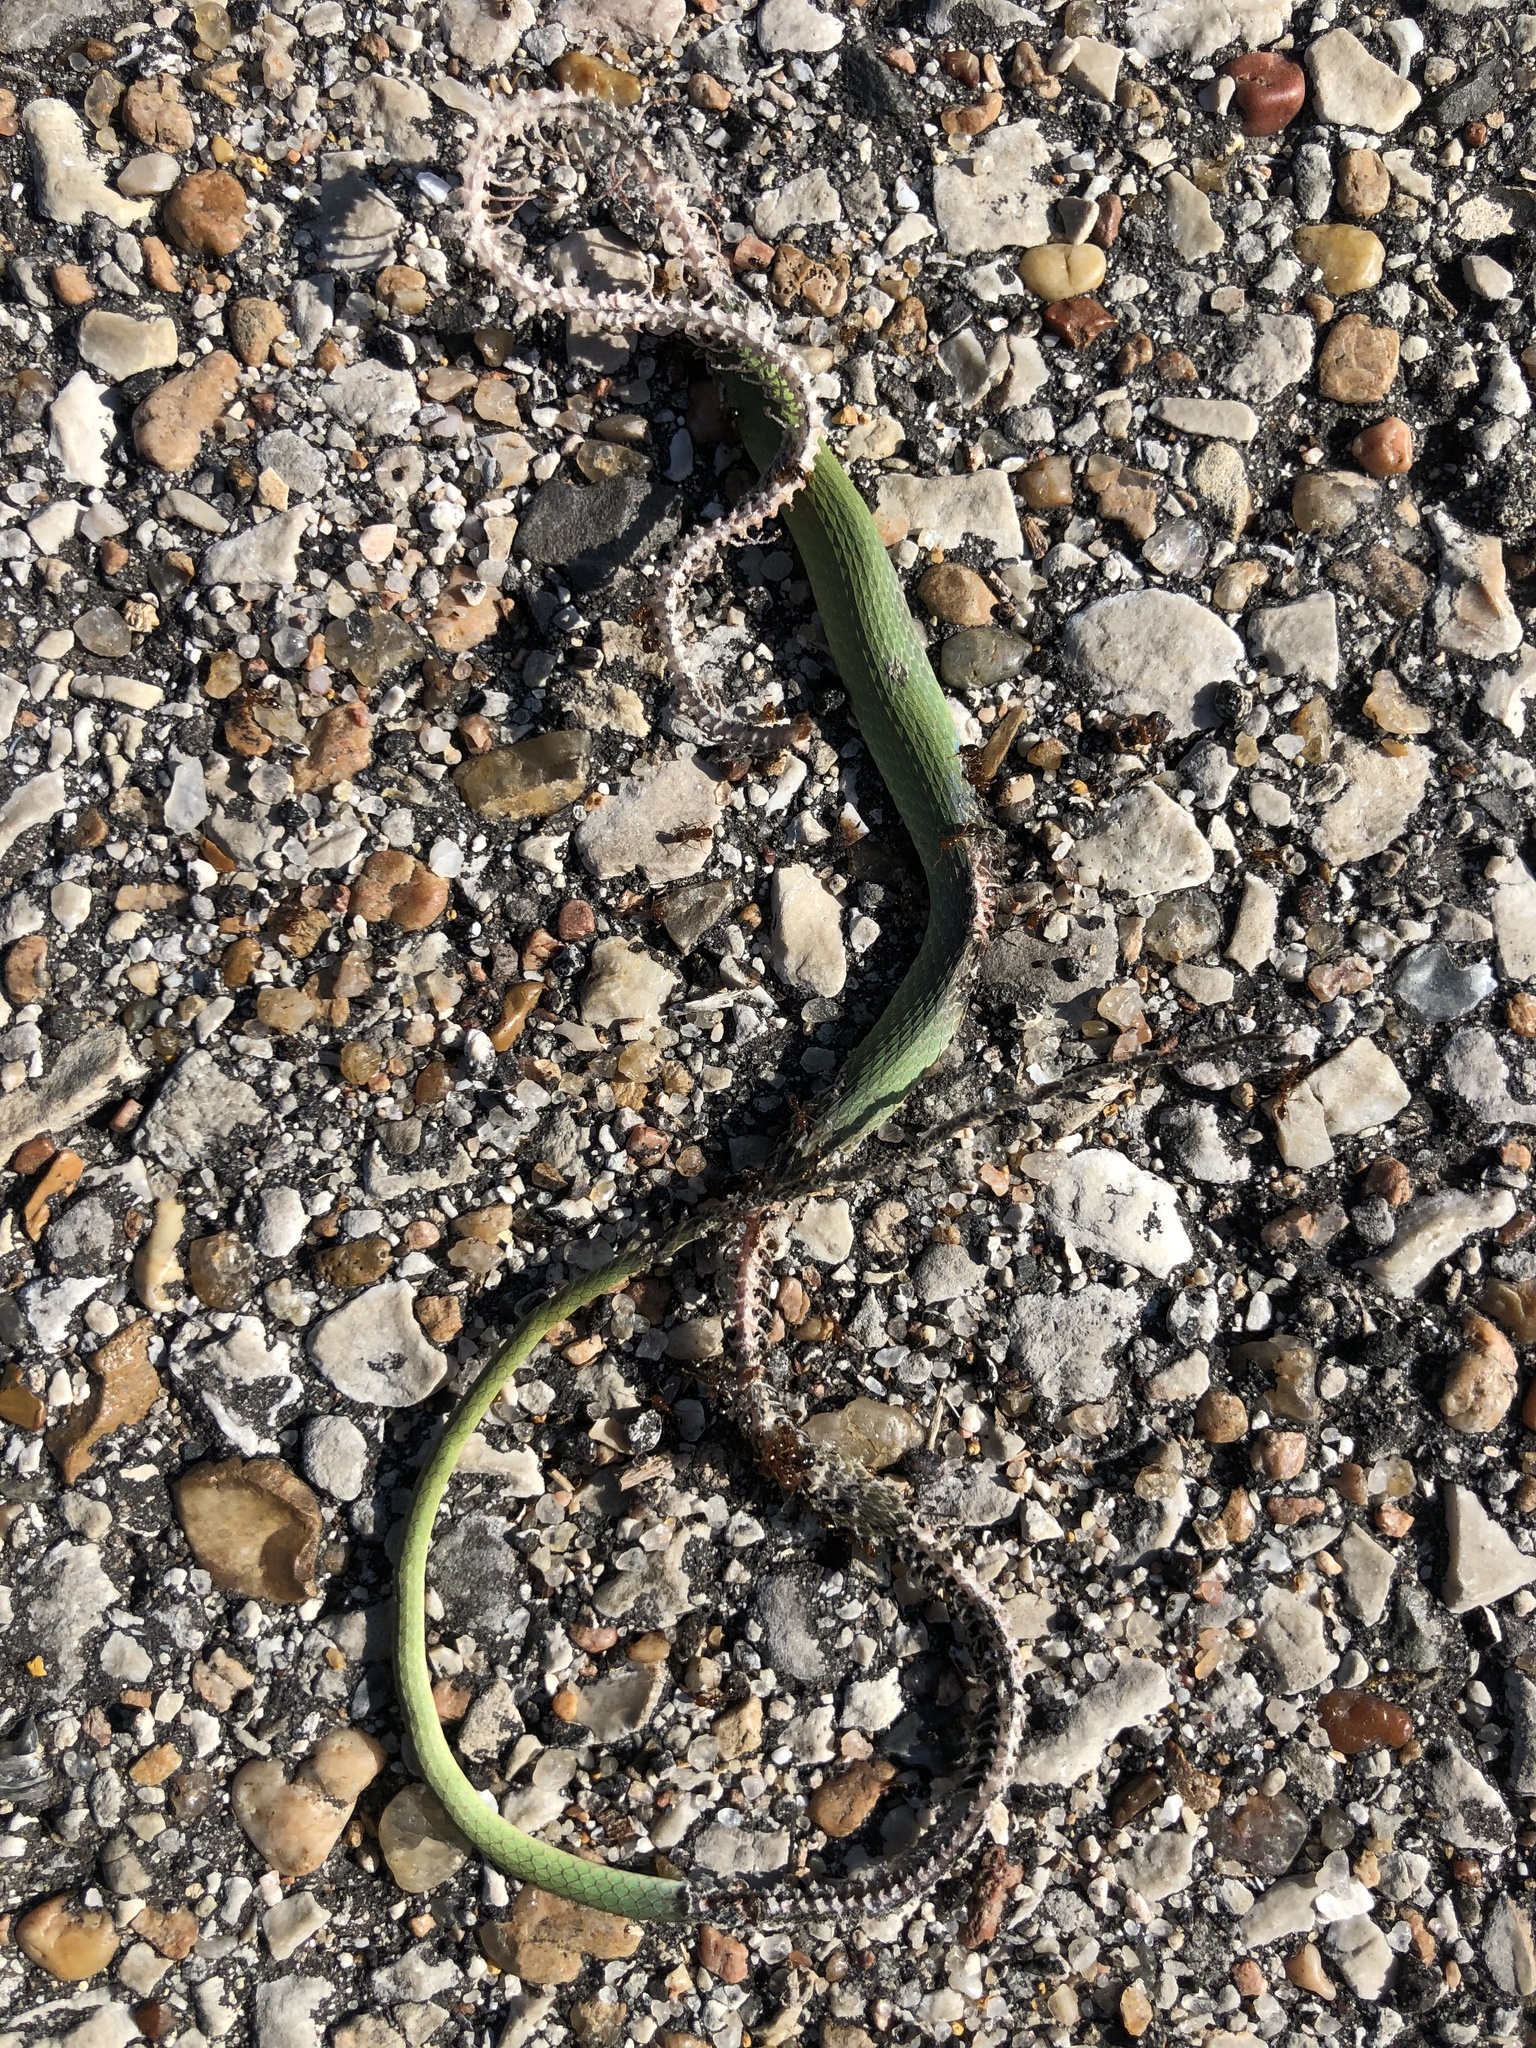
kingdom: Animalia
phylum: Chordata
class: Squamata
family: Colubridae
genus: Opheodrys
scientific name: Opheodrys aestivus
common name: Rough greensnake
